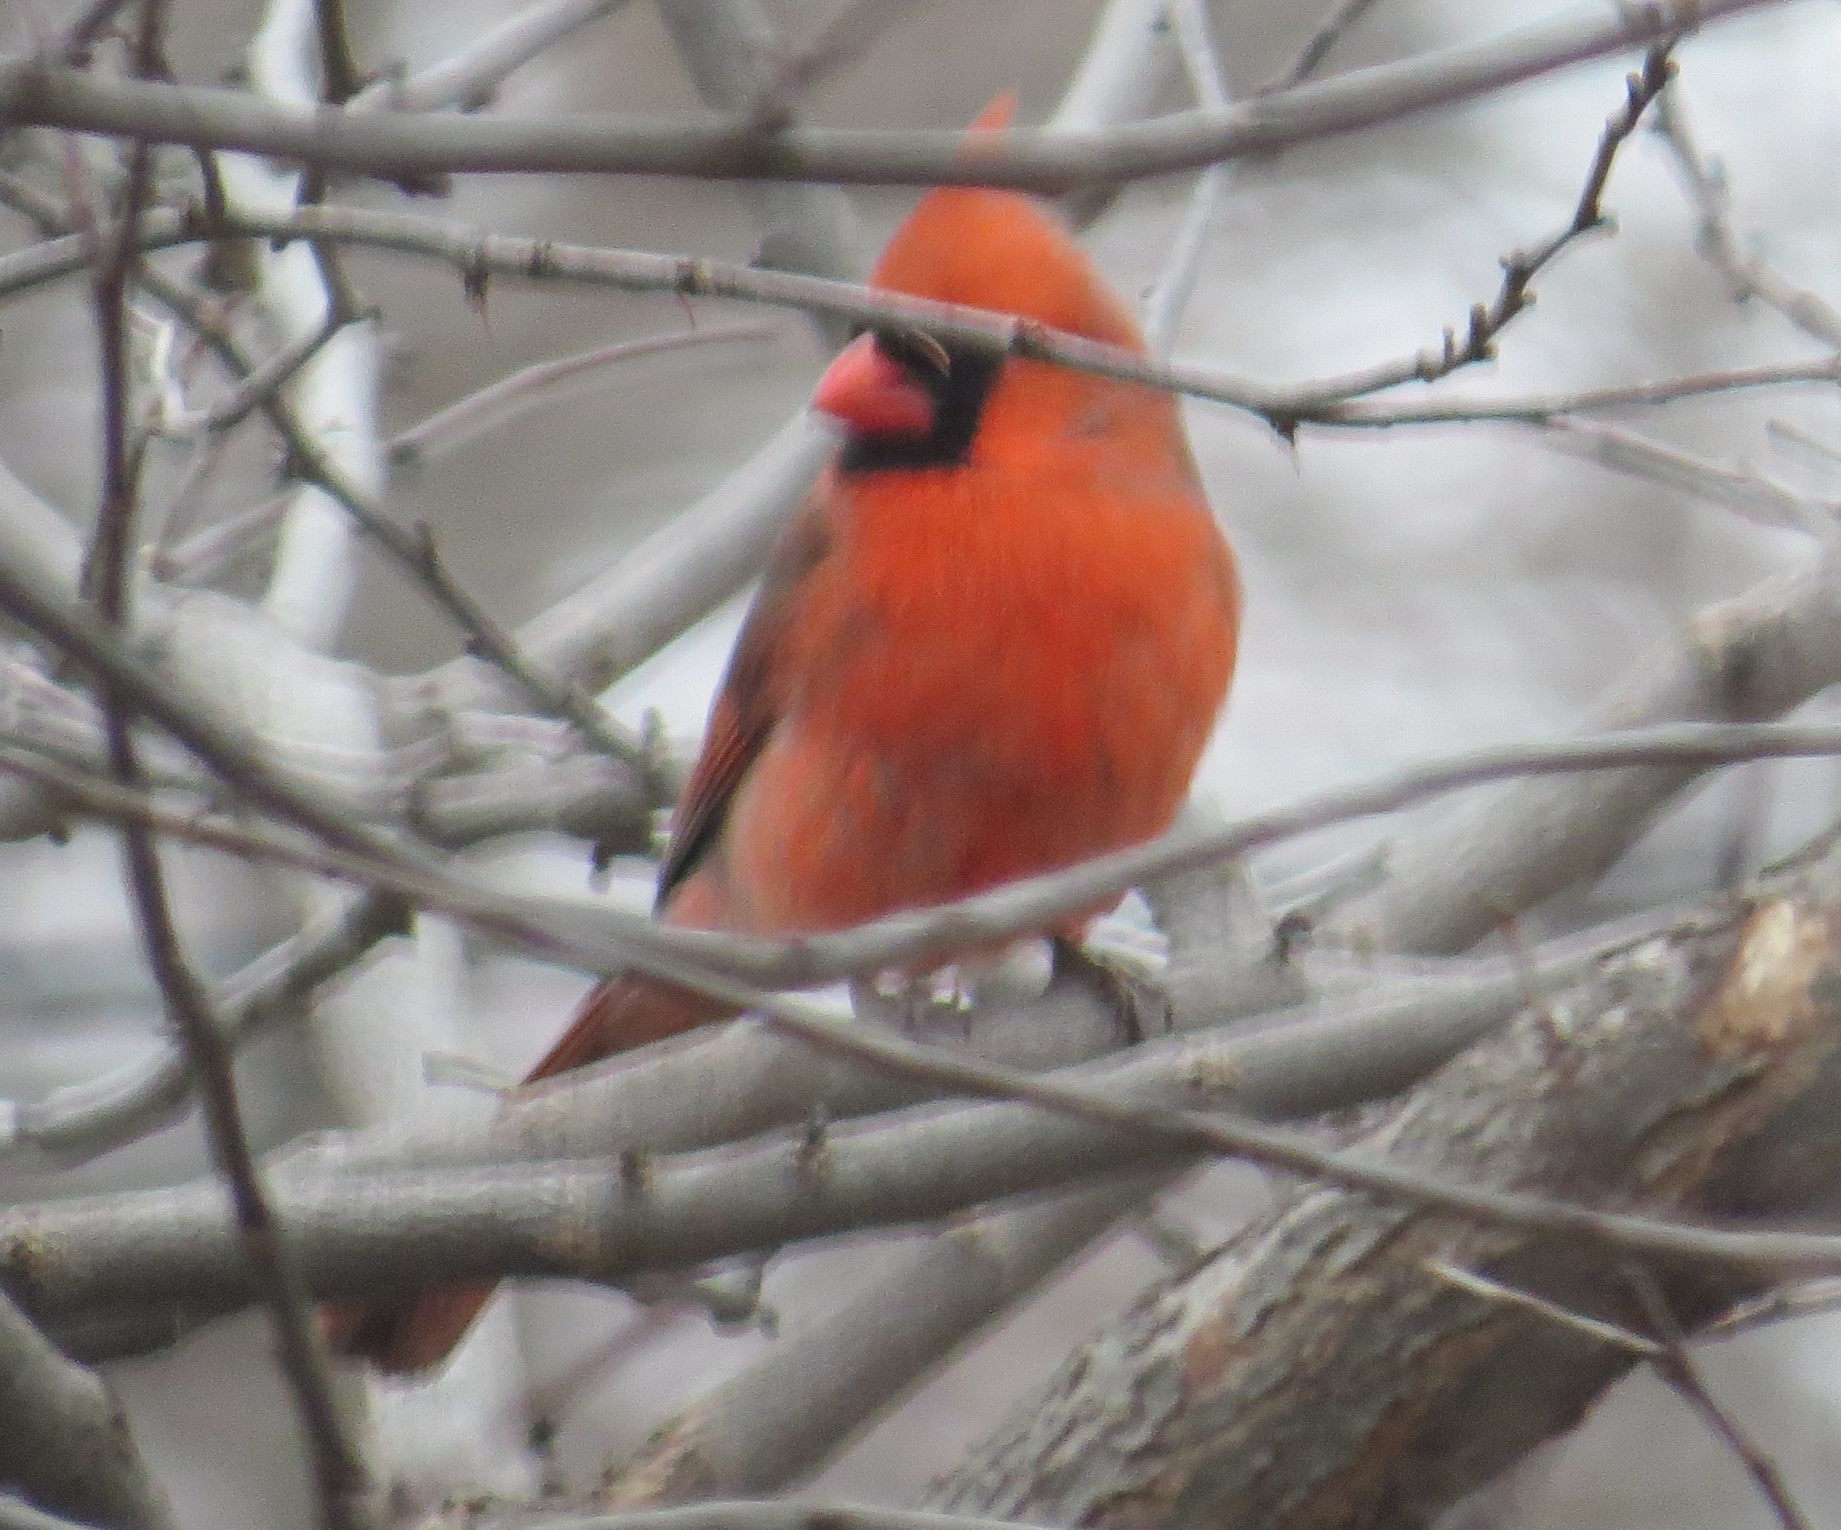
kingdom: Animalia
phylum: Chordata
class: Aves
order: Passeriformes
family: Cardinalidae
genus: Cardinalis
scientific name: Cardinalis cardinalis
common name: Northern cardinal
